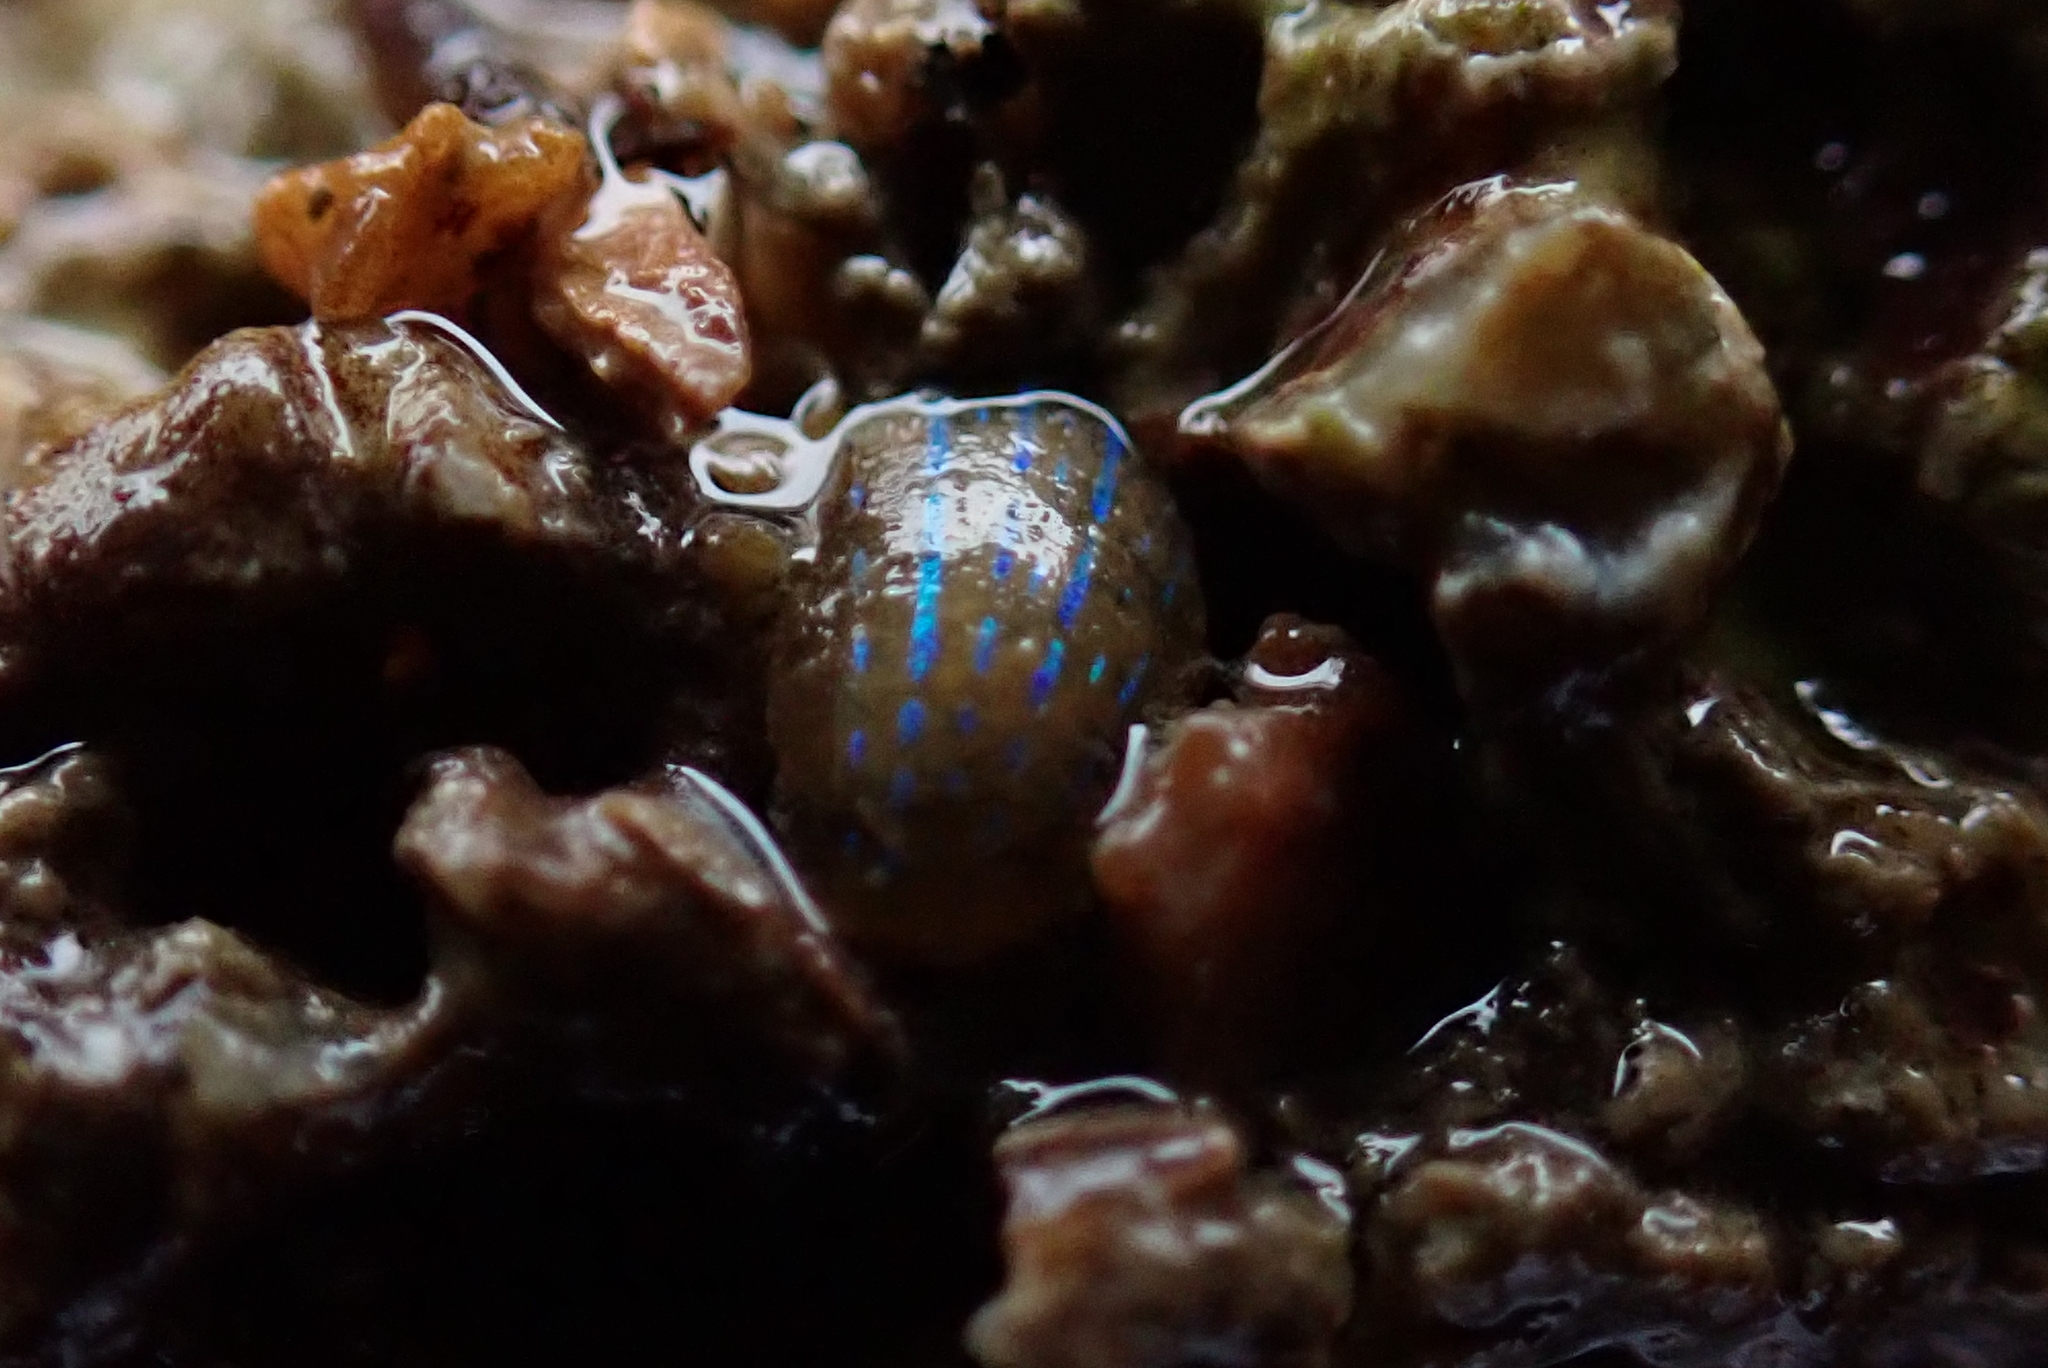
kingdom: Animalia
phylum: Mollusca
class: Gastropoda
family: Patellidae
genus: Patella
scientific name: Patella pellucida
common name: Blue-rayed limpet
